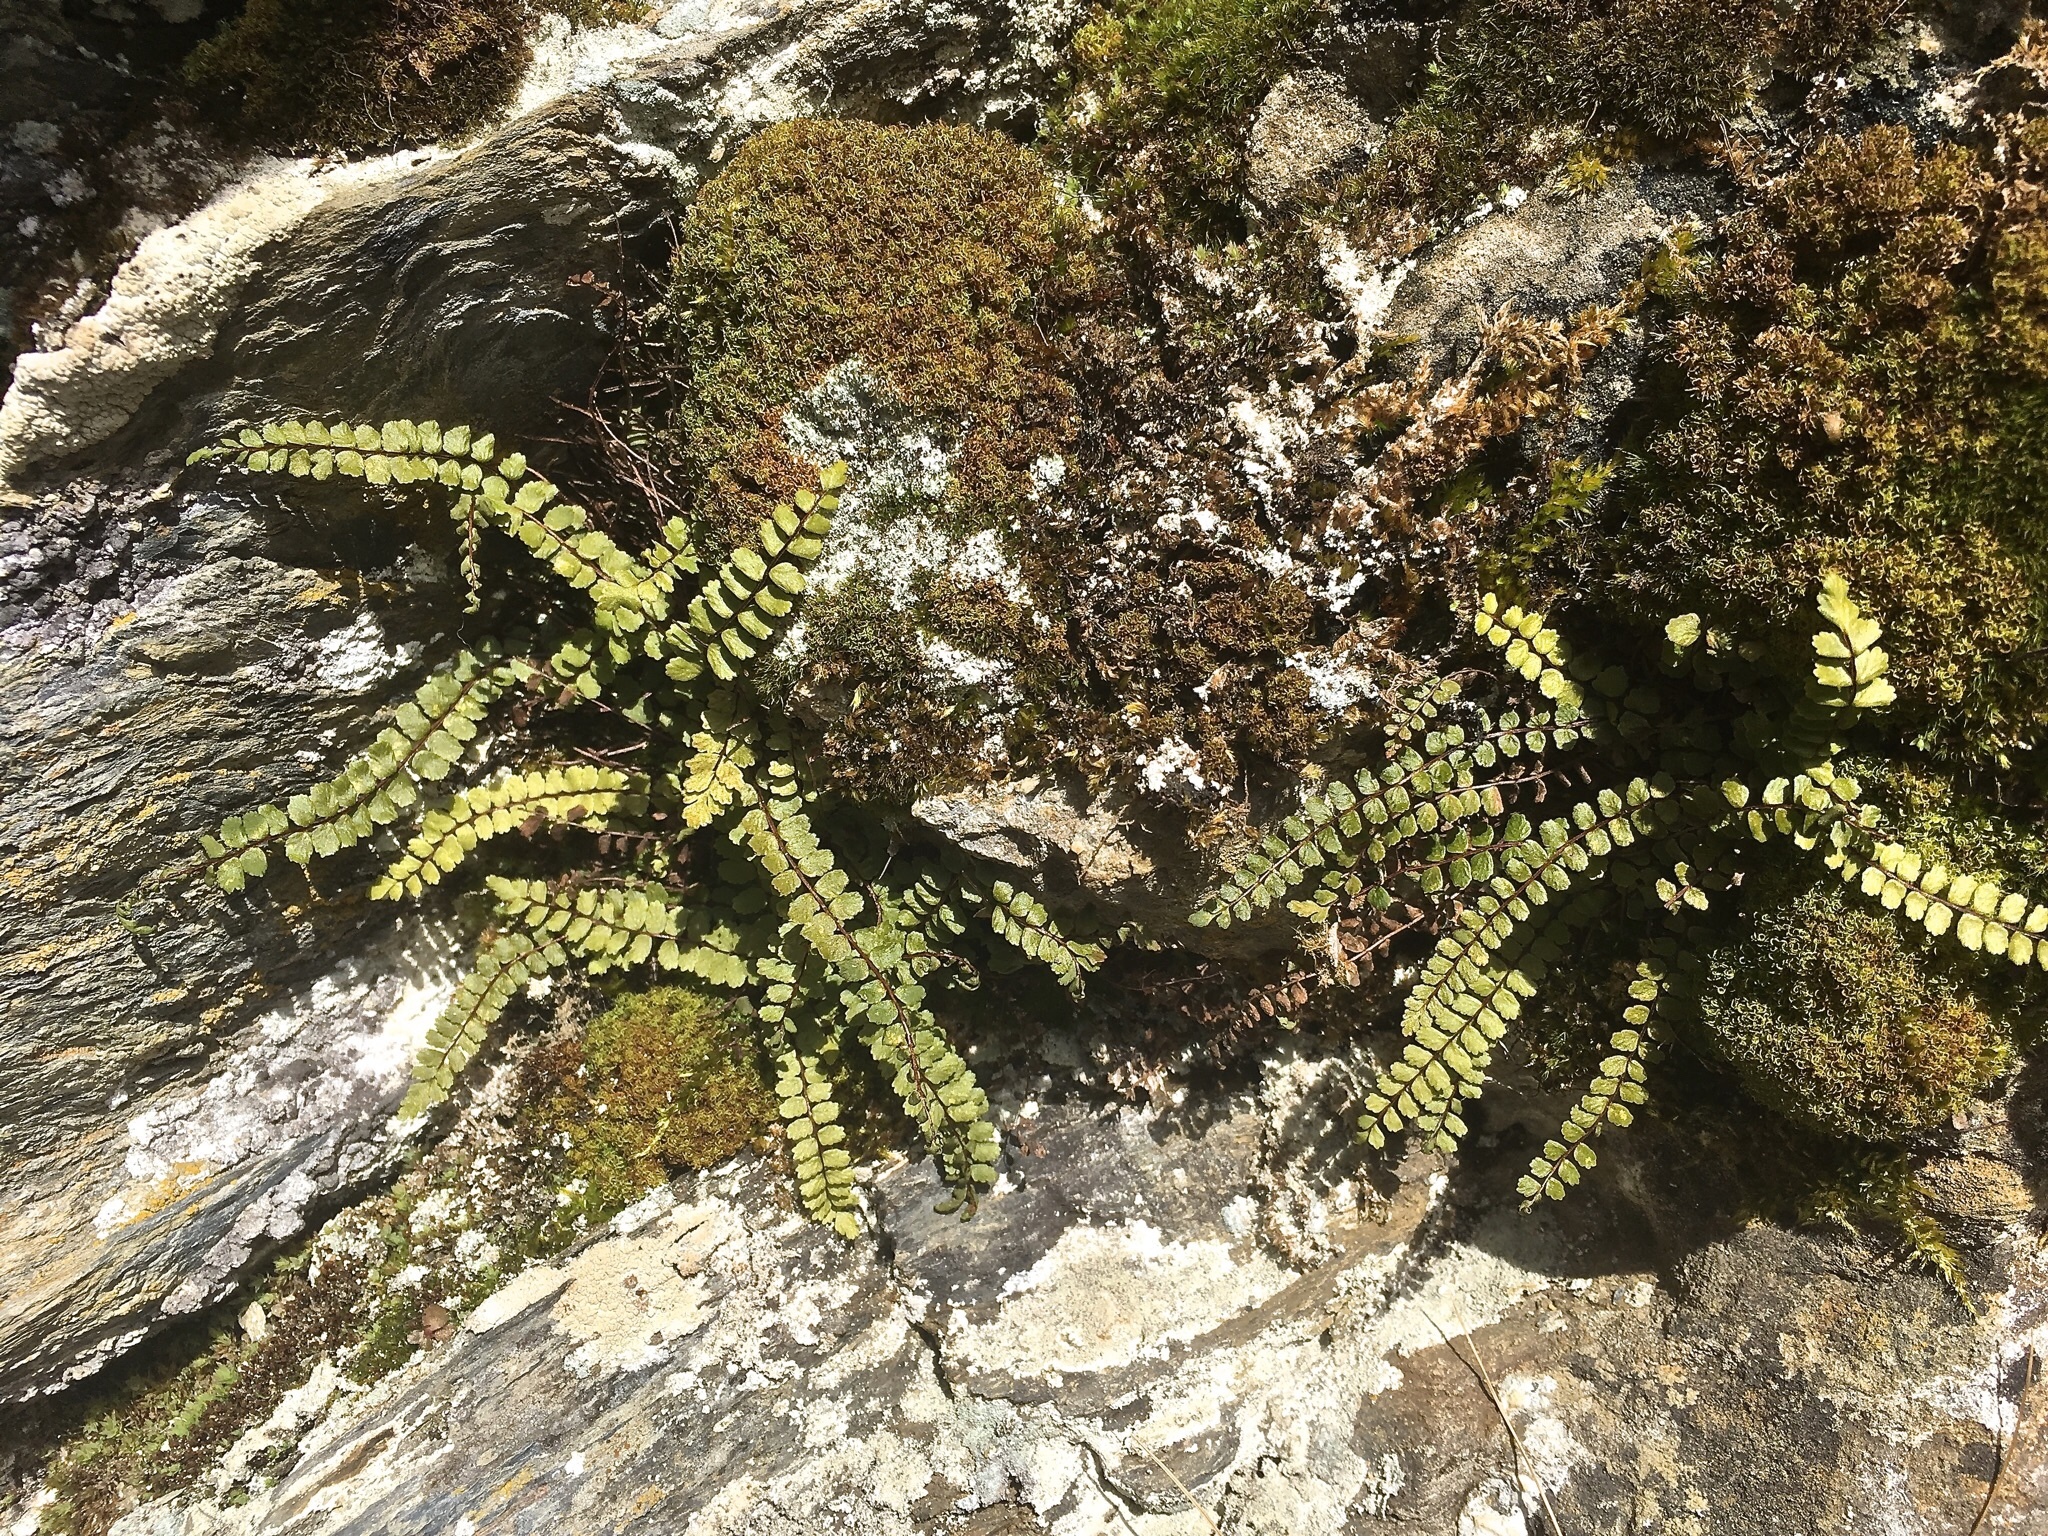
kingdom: Plantae
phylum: Tracheophyta
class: Polypodiopsida
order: Polypodiales
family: Aspleniaceae
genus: Asplenium
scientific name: Asplenium trichomanes
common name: Maidenhair spleenwort
